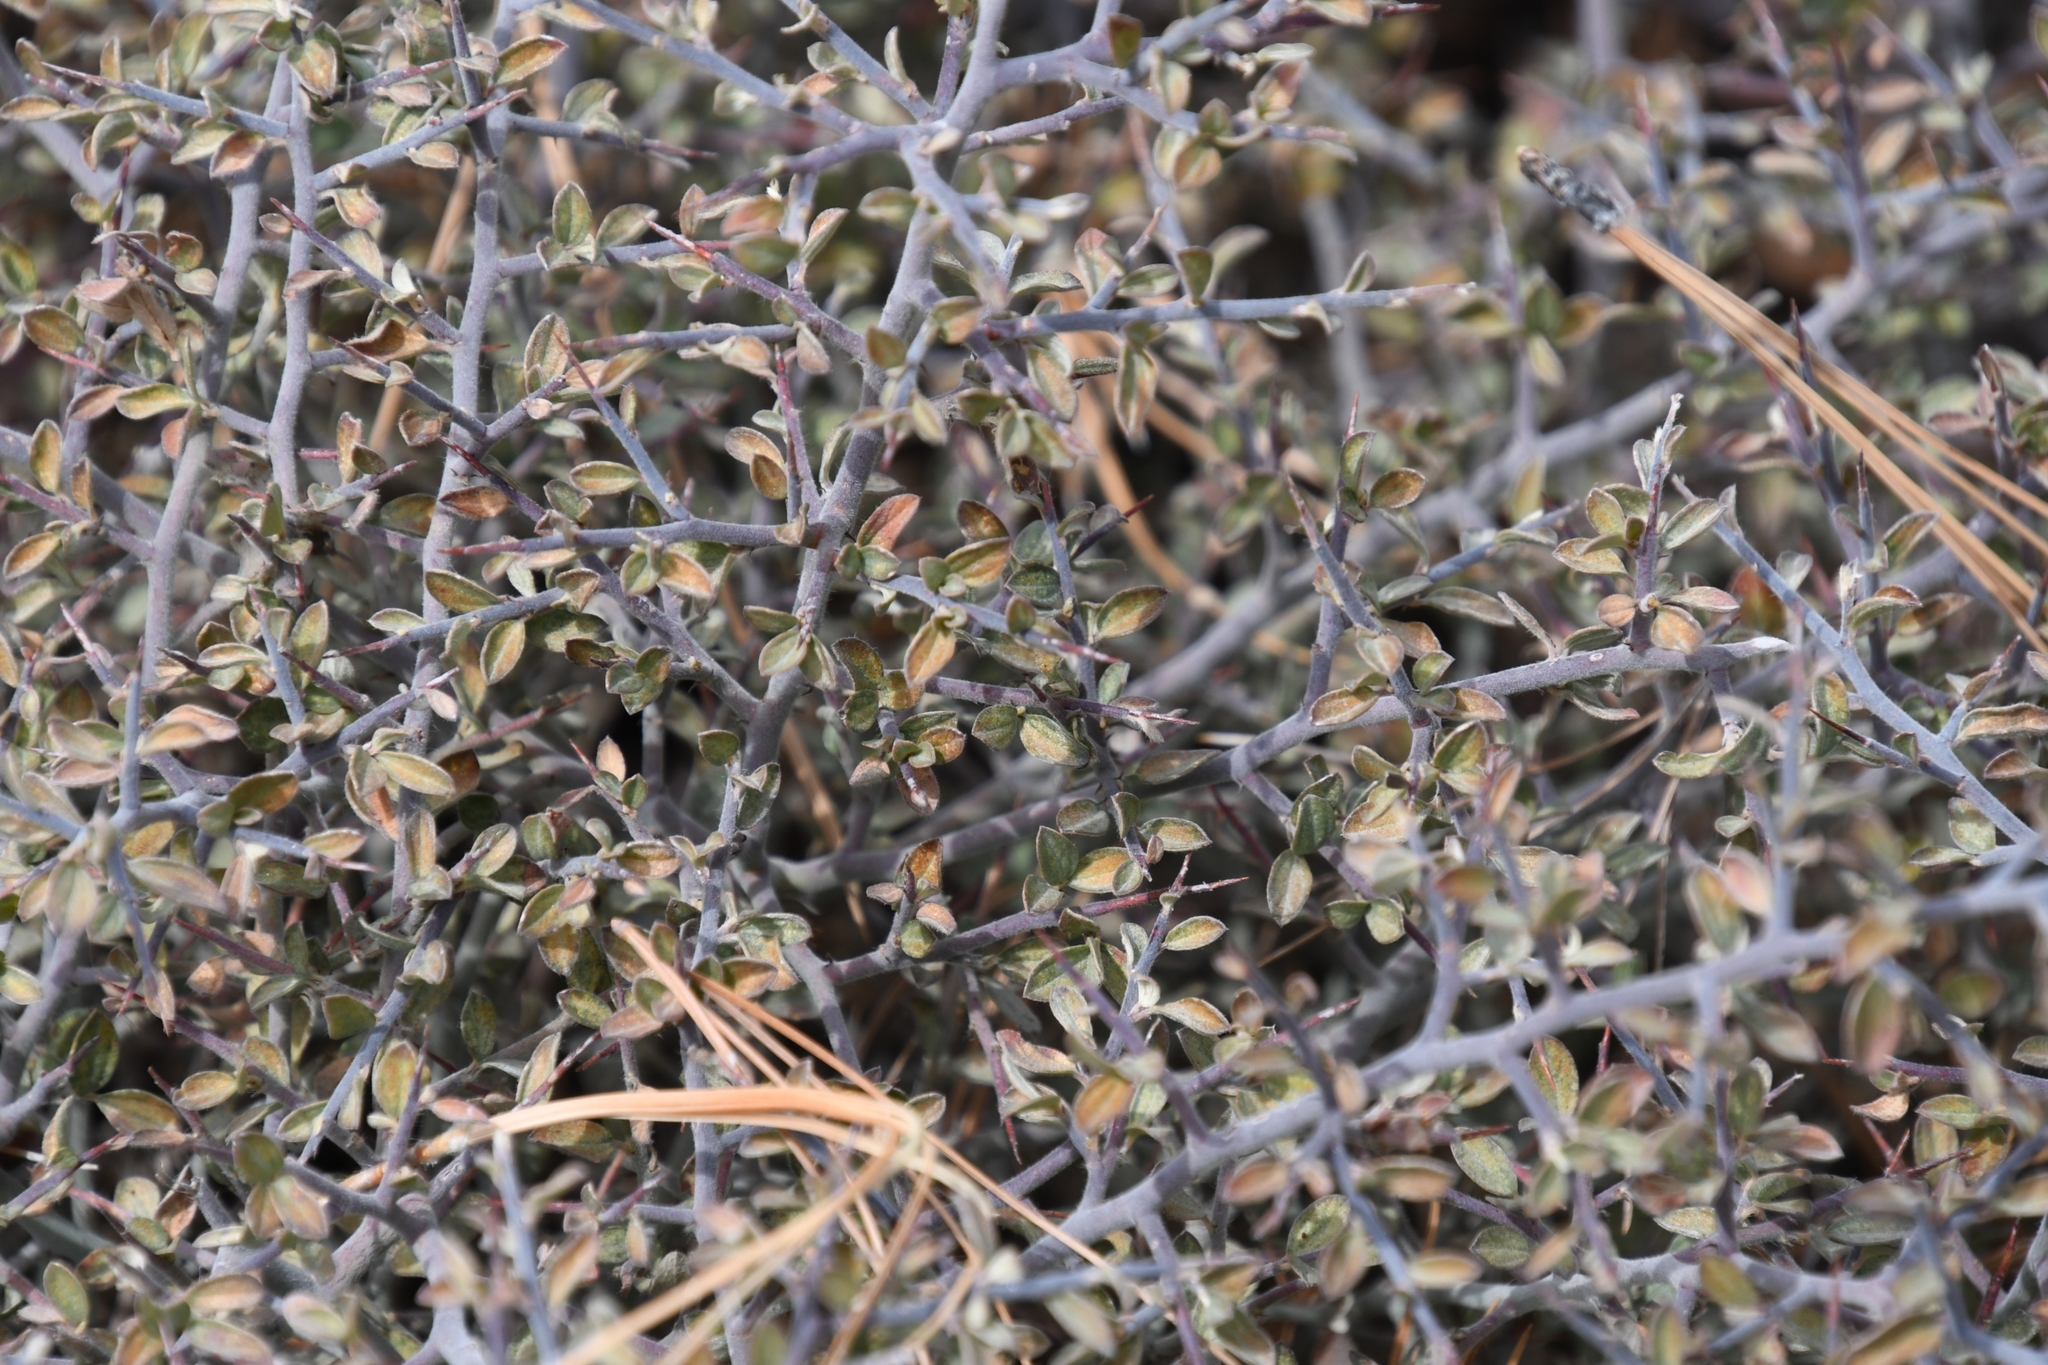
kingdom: Plantae
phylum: Tracheophyta
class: Magnoliopsida
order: Rosales
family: Rhamnaceae
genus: Ceanothus
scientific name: Ceanothus fendleri
